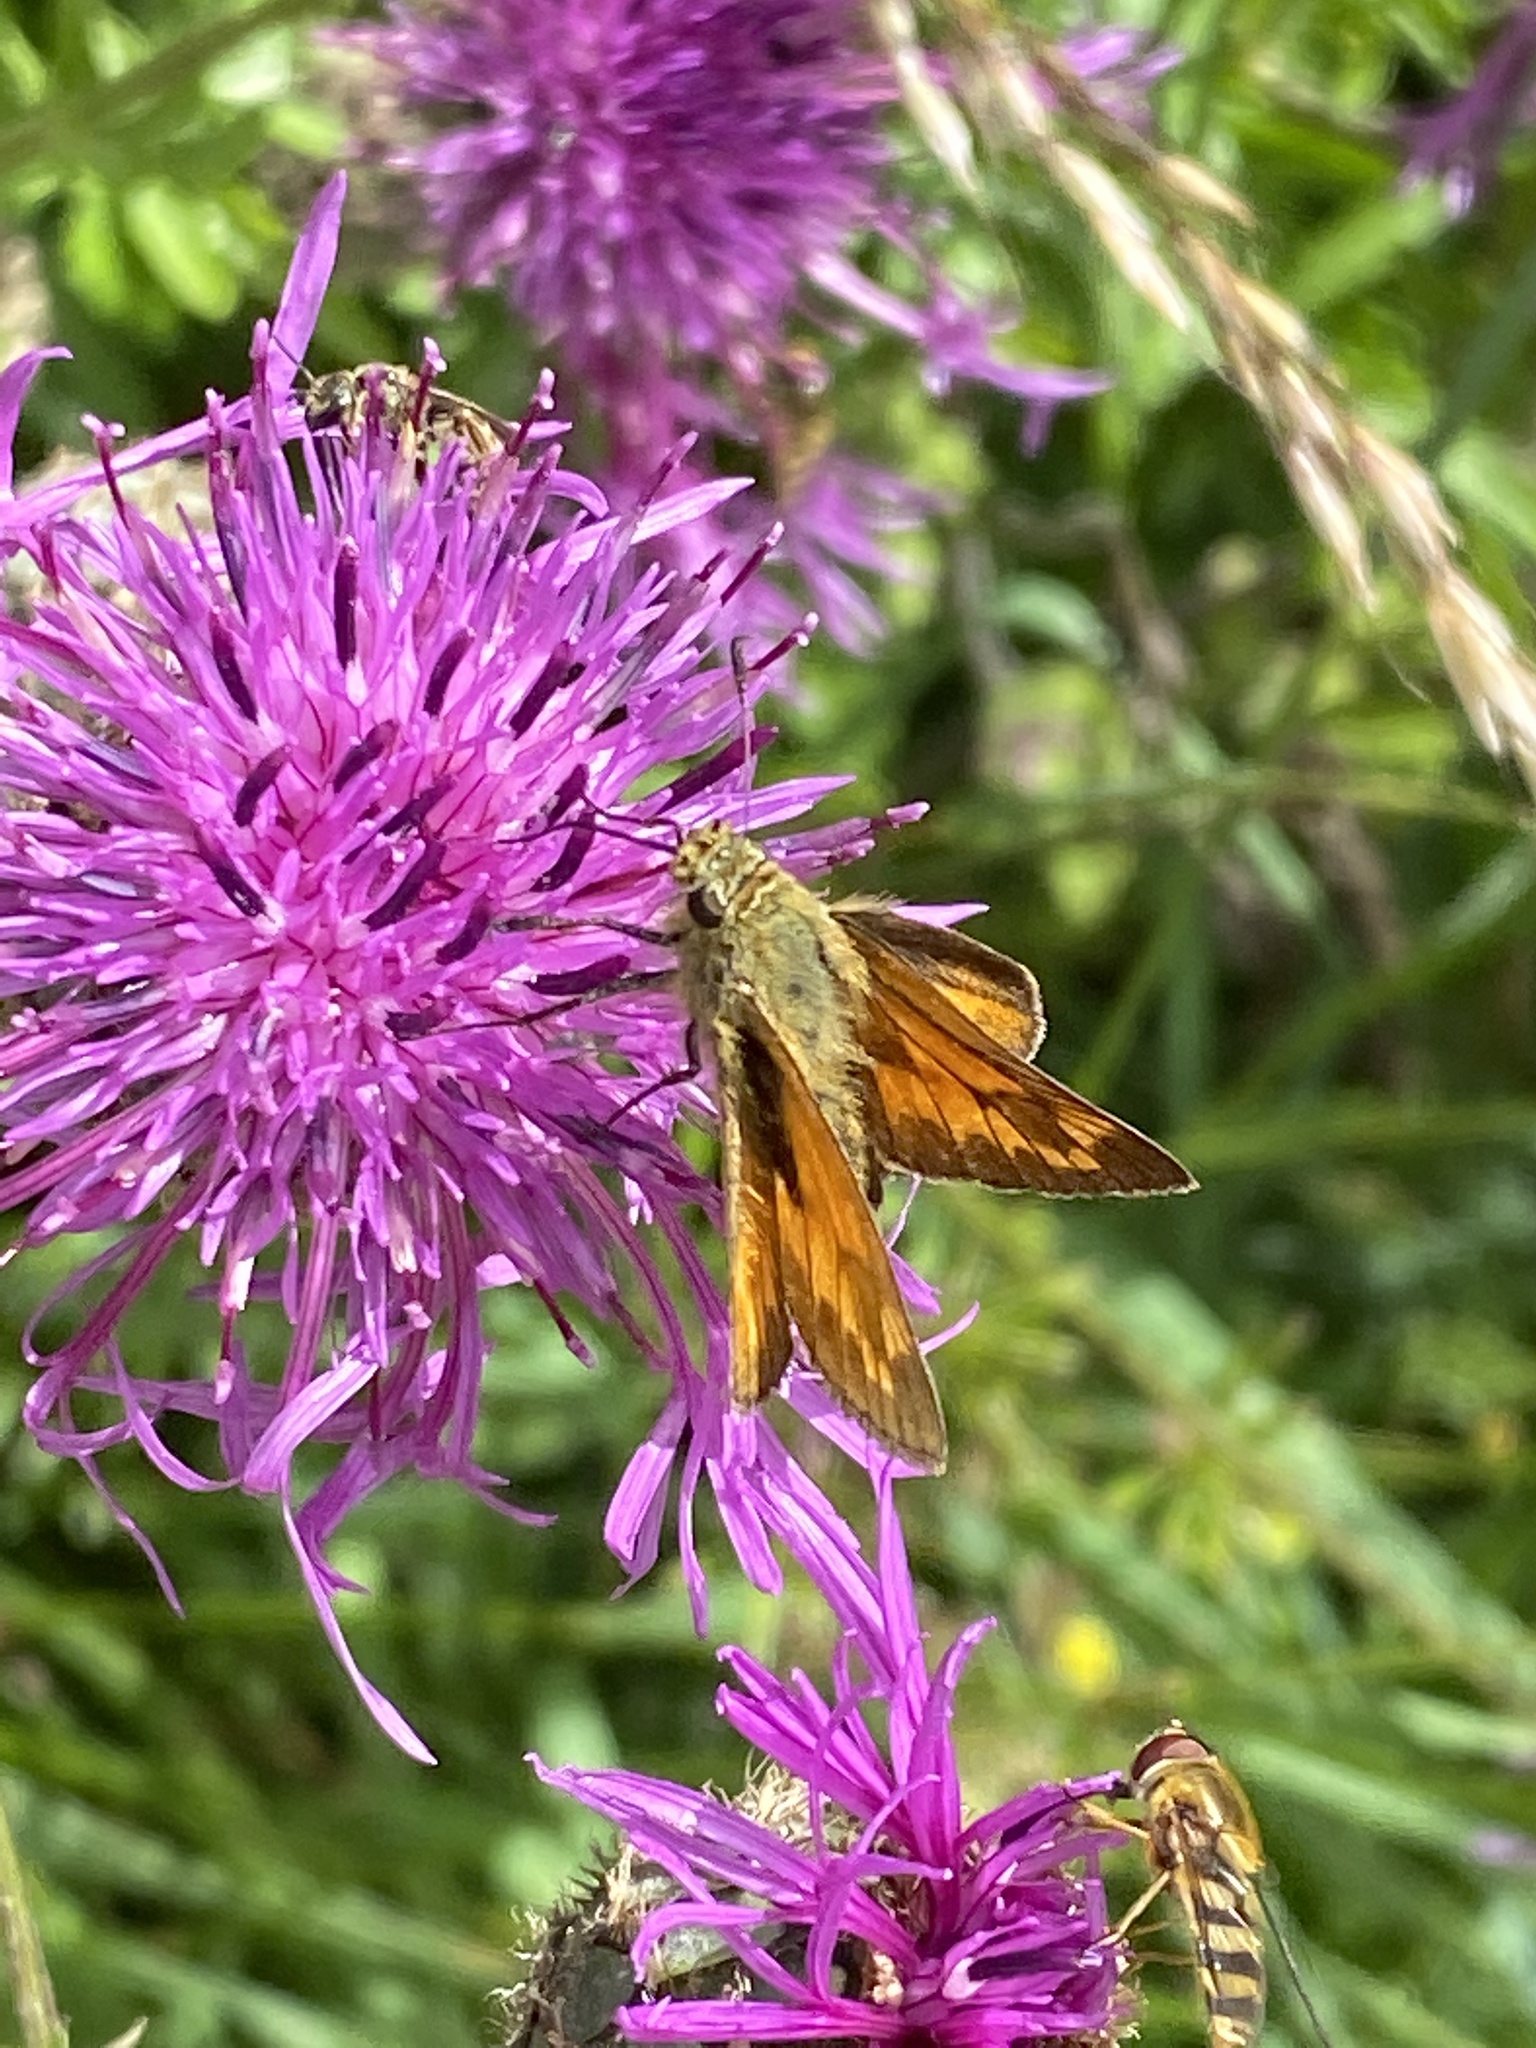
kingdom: Animalia
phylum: Arthropoda
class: Insecta
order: Lepidoptera
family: Hesperiidae
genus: Ochlodes
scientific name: Ochlodes venata
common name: Large skipper
